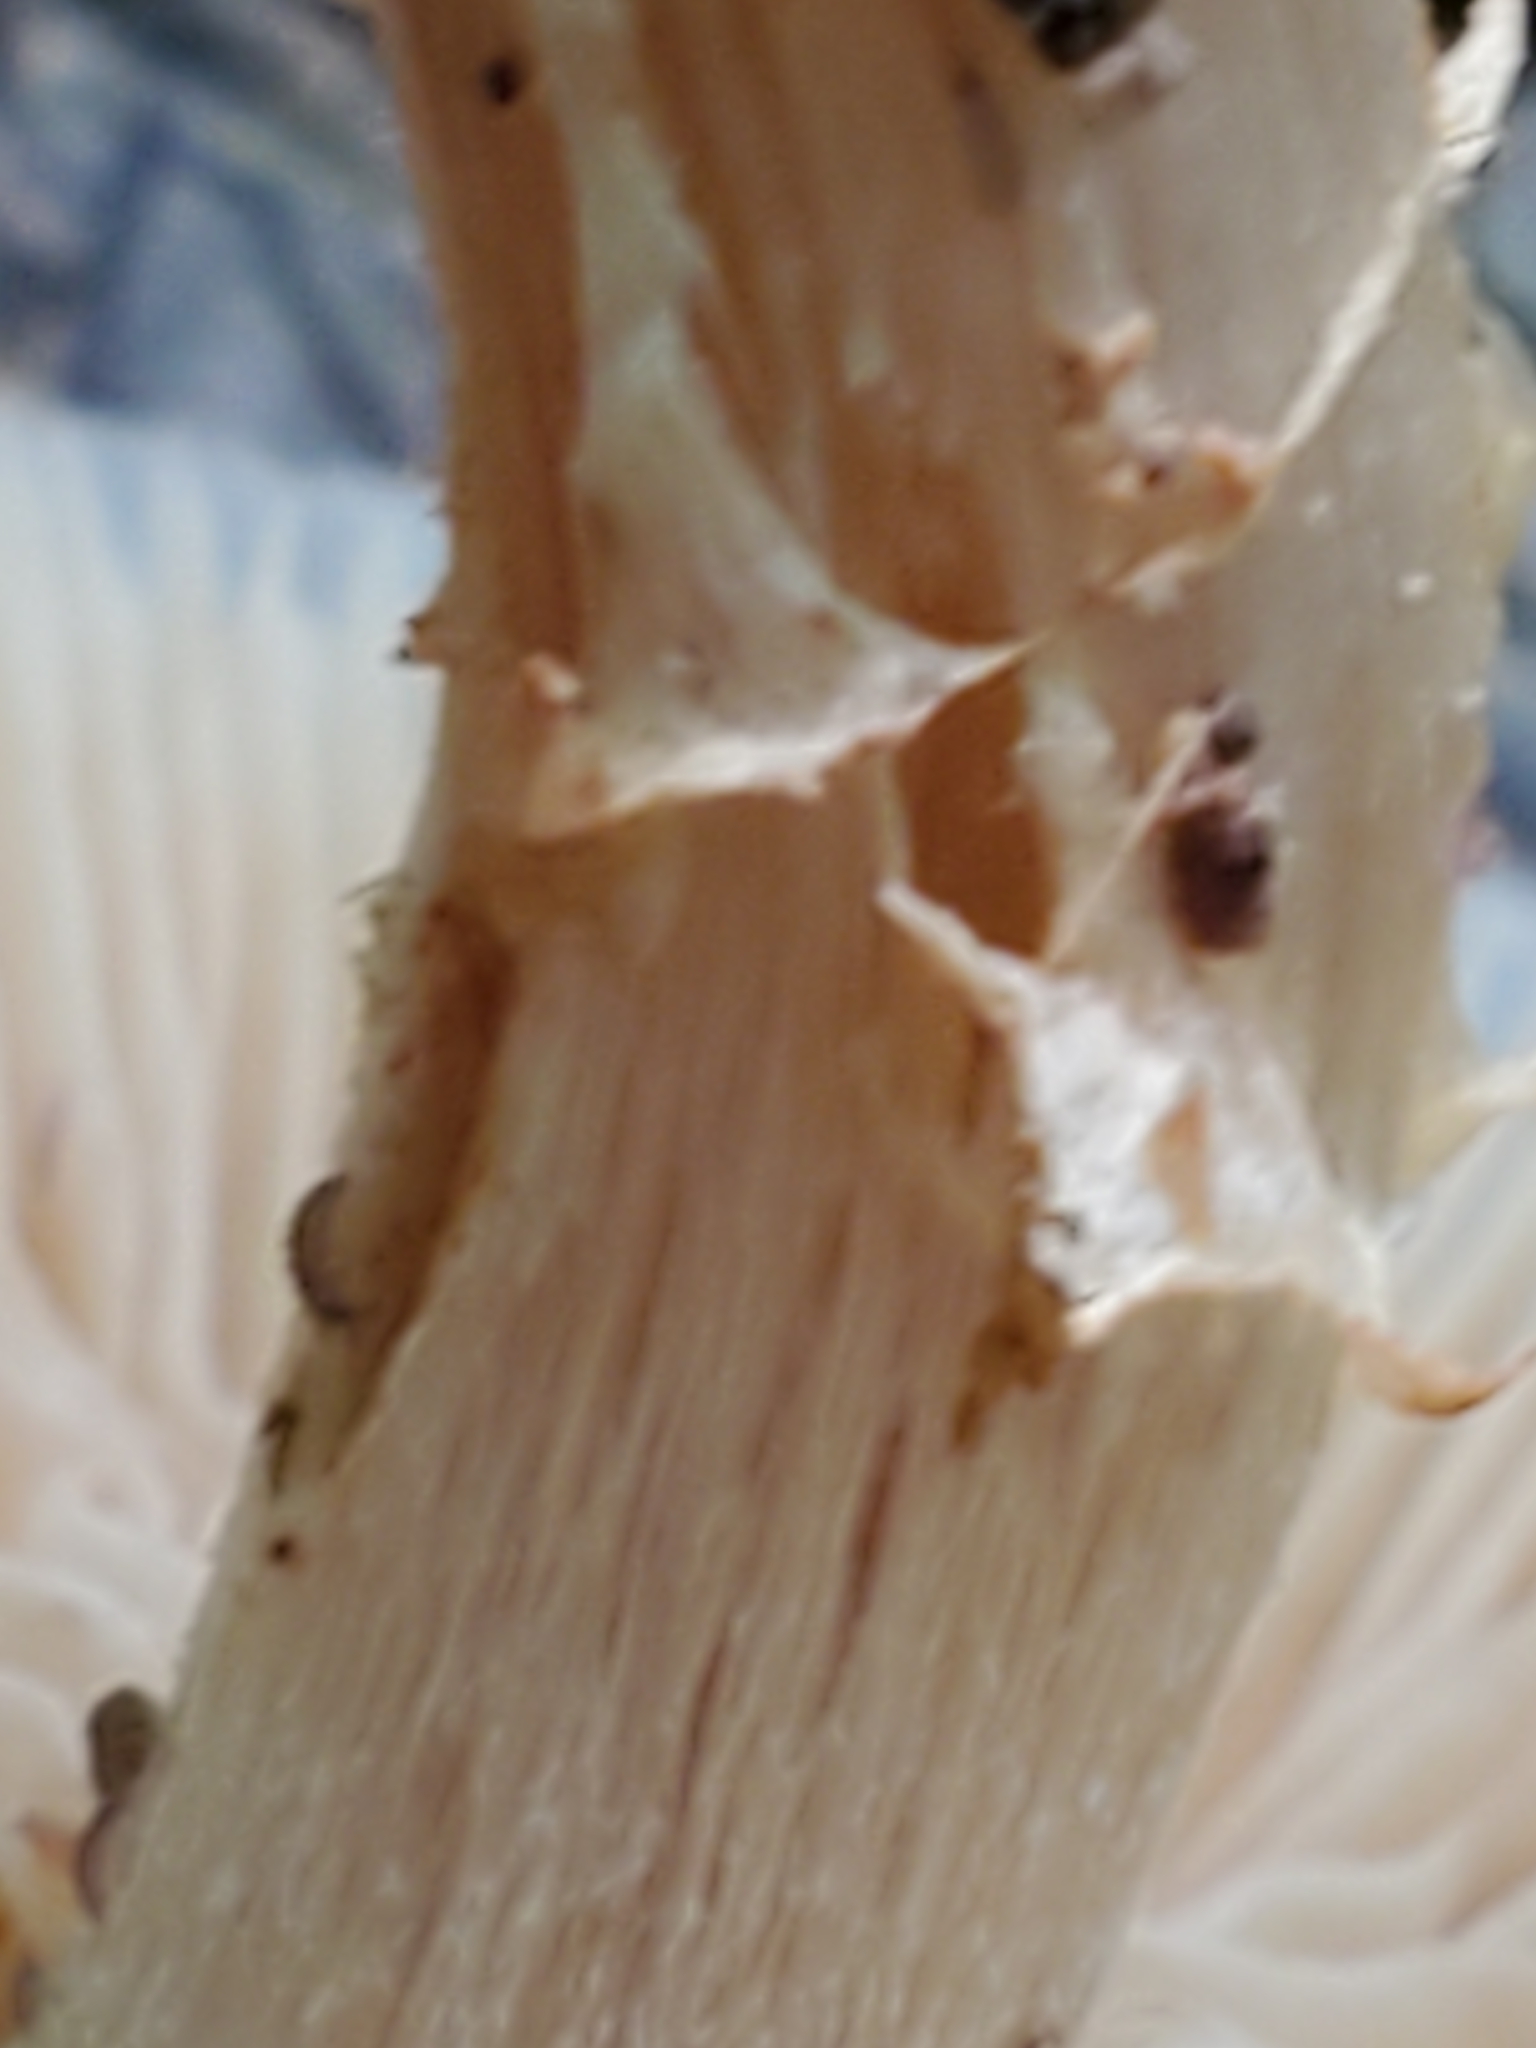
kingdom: Fungi
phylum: Basidiomycota
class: Agaricomycetes
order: Agaricales
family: Strophariaceae
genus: Kuehneromyces
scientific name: Kuehneromyces marginellus
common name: Sheathed woodtuft
